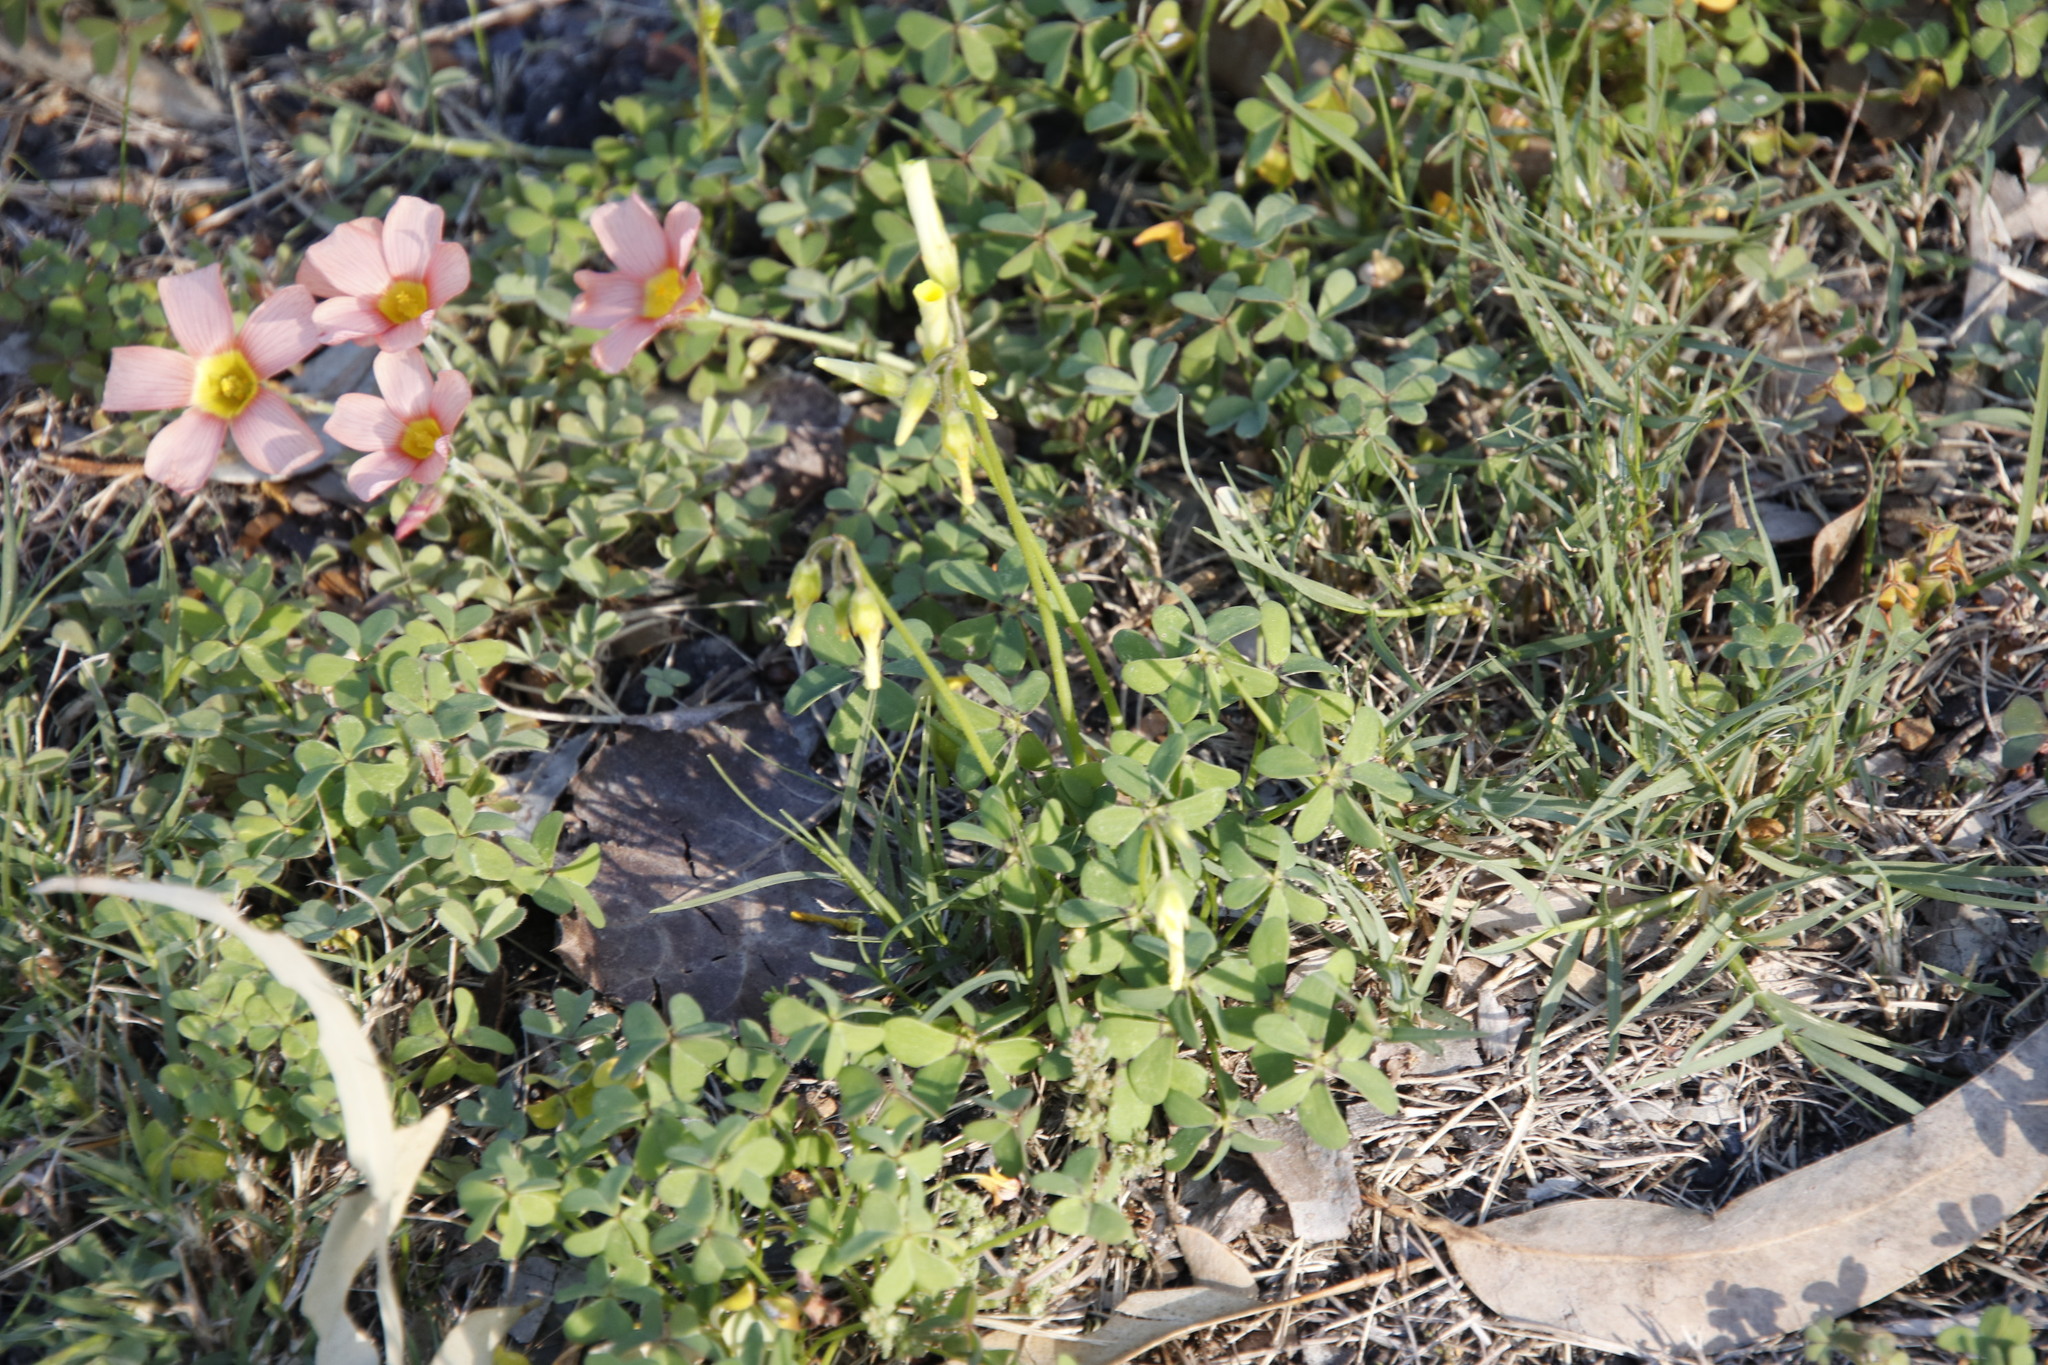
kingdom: Plantae
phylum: Tracheophyta
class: Magnoliopsida
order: Oxalidales
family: Oxalidaceae
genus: Oxalis
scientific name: Oxalis pes-caprae
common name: Bermuda-buttercup
